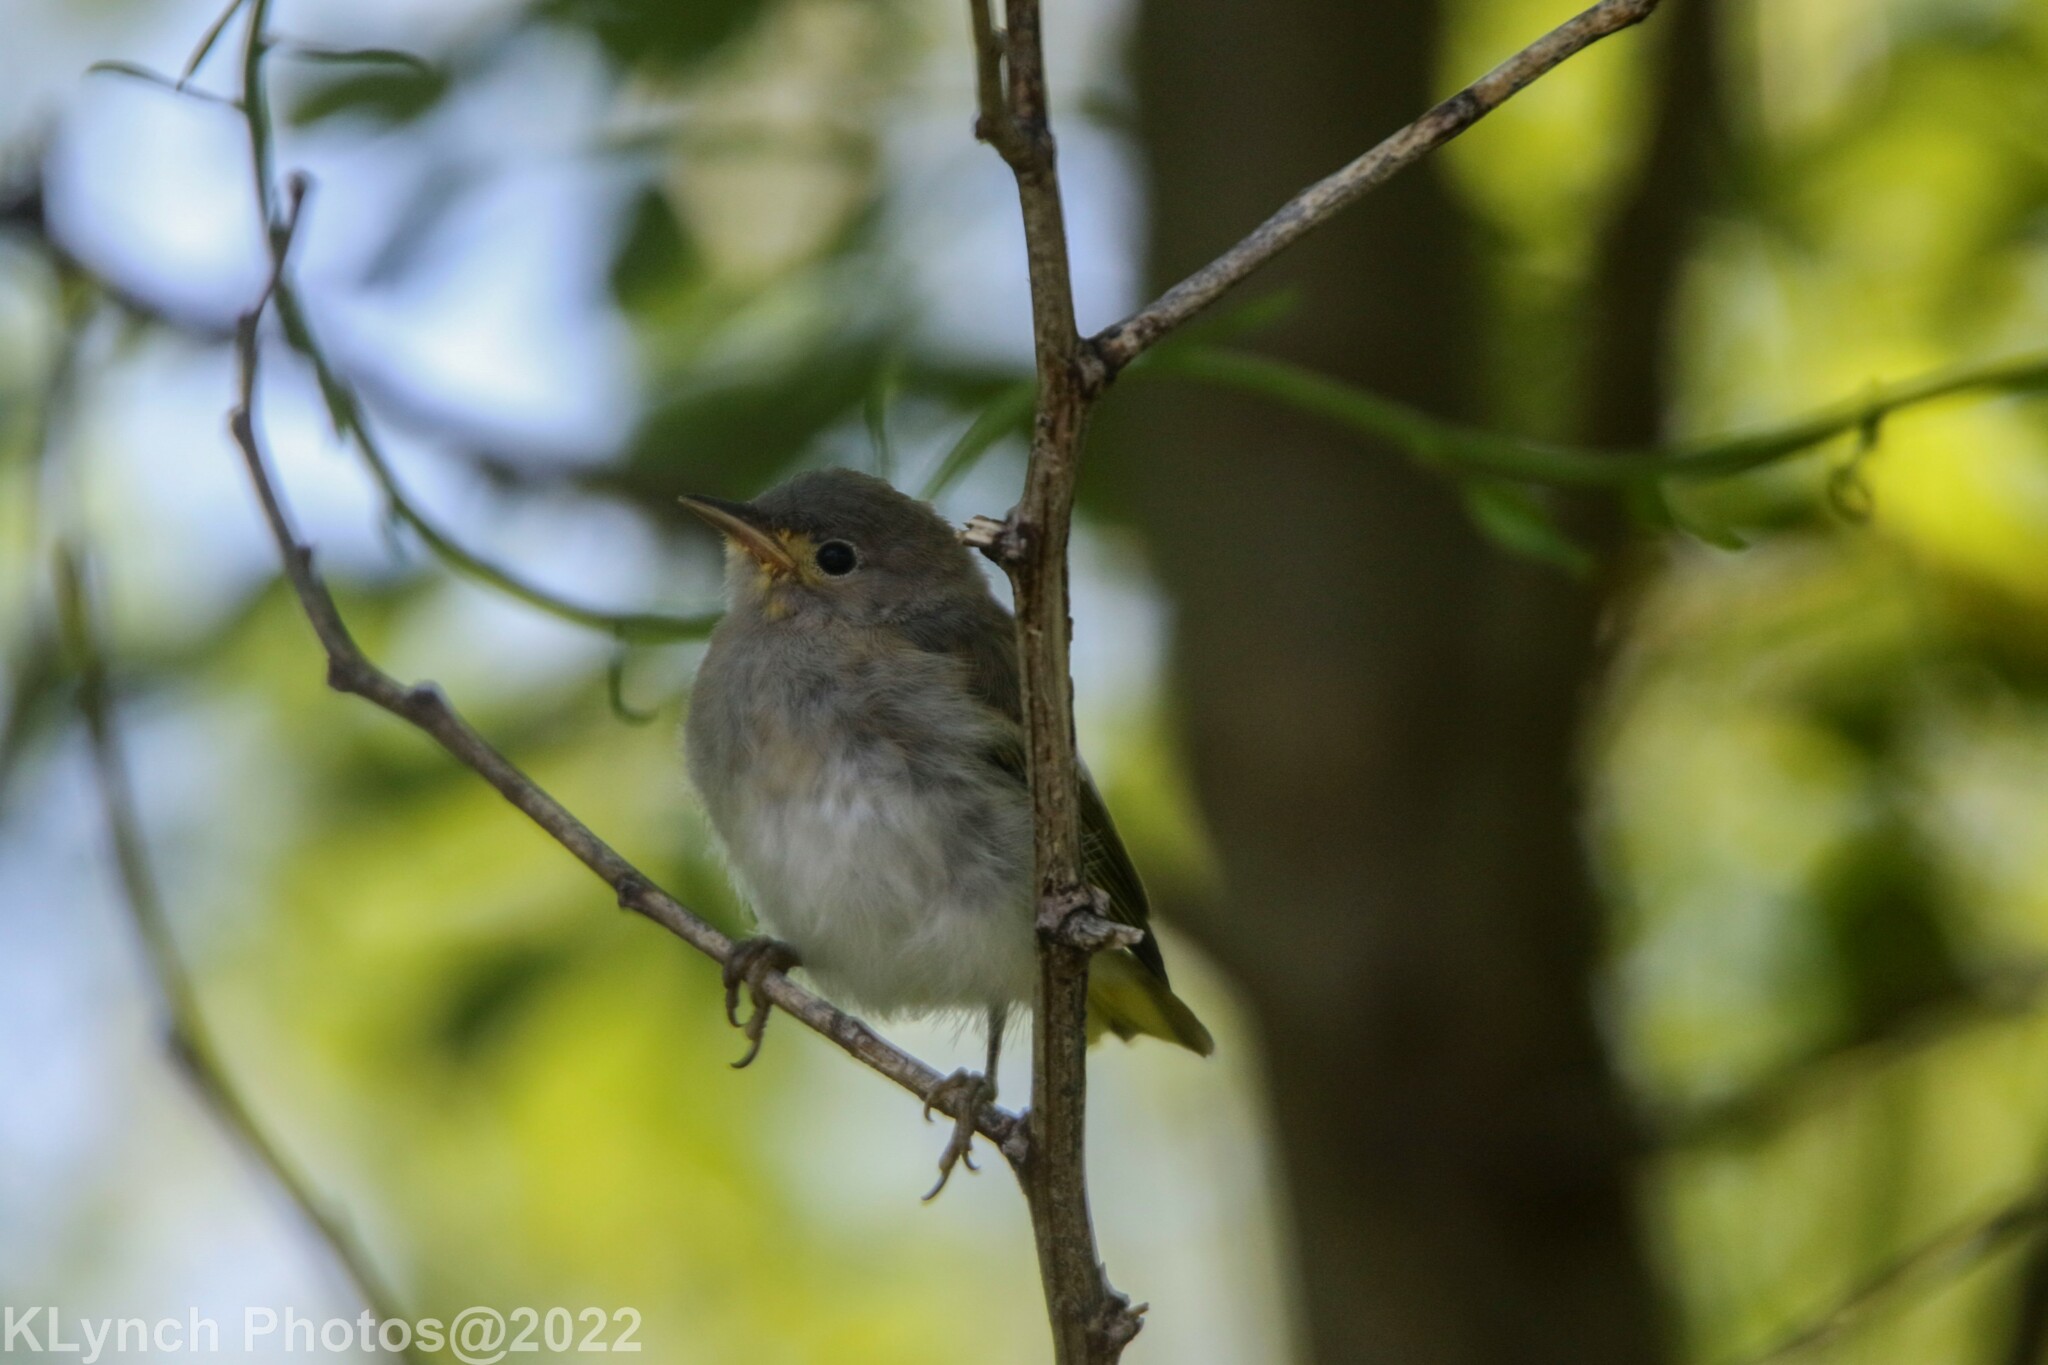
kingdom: Animalia
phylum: Chordata
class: Aves
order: Passeriformes
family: Parulidae
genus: Setophaga
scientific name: Setophaga petechia
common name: Yellow warbler
